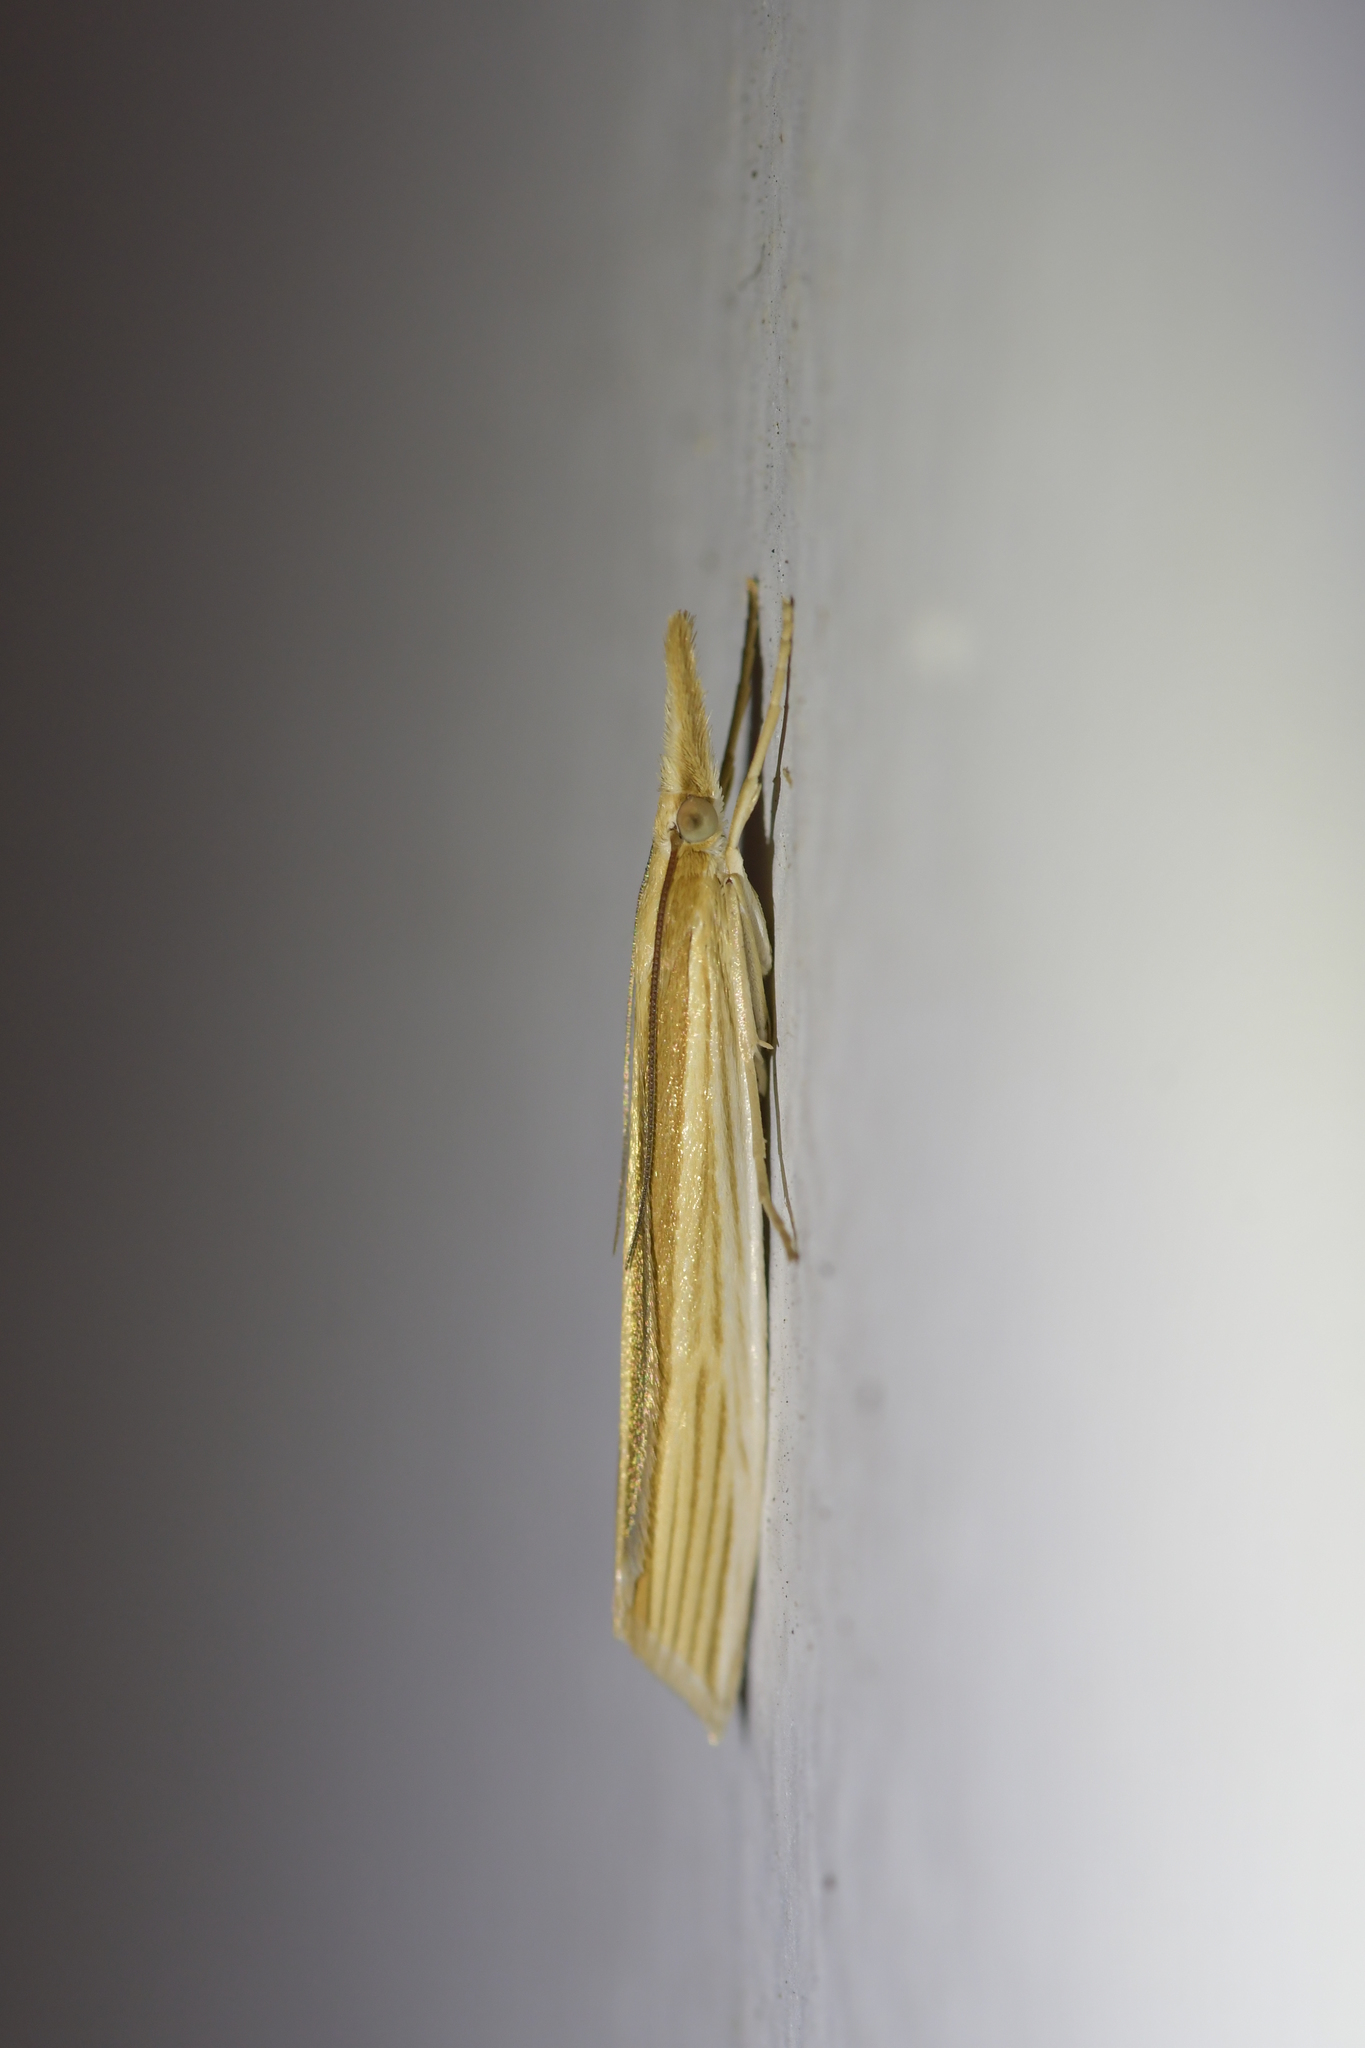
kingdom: Animalia
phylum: Arthropoda
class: Insecta
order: Lepidoptera
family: Crambidae
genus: Orocrambus
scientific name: Orocrambus angustipennis
